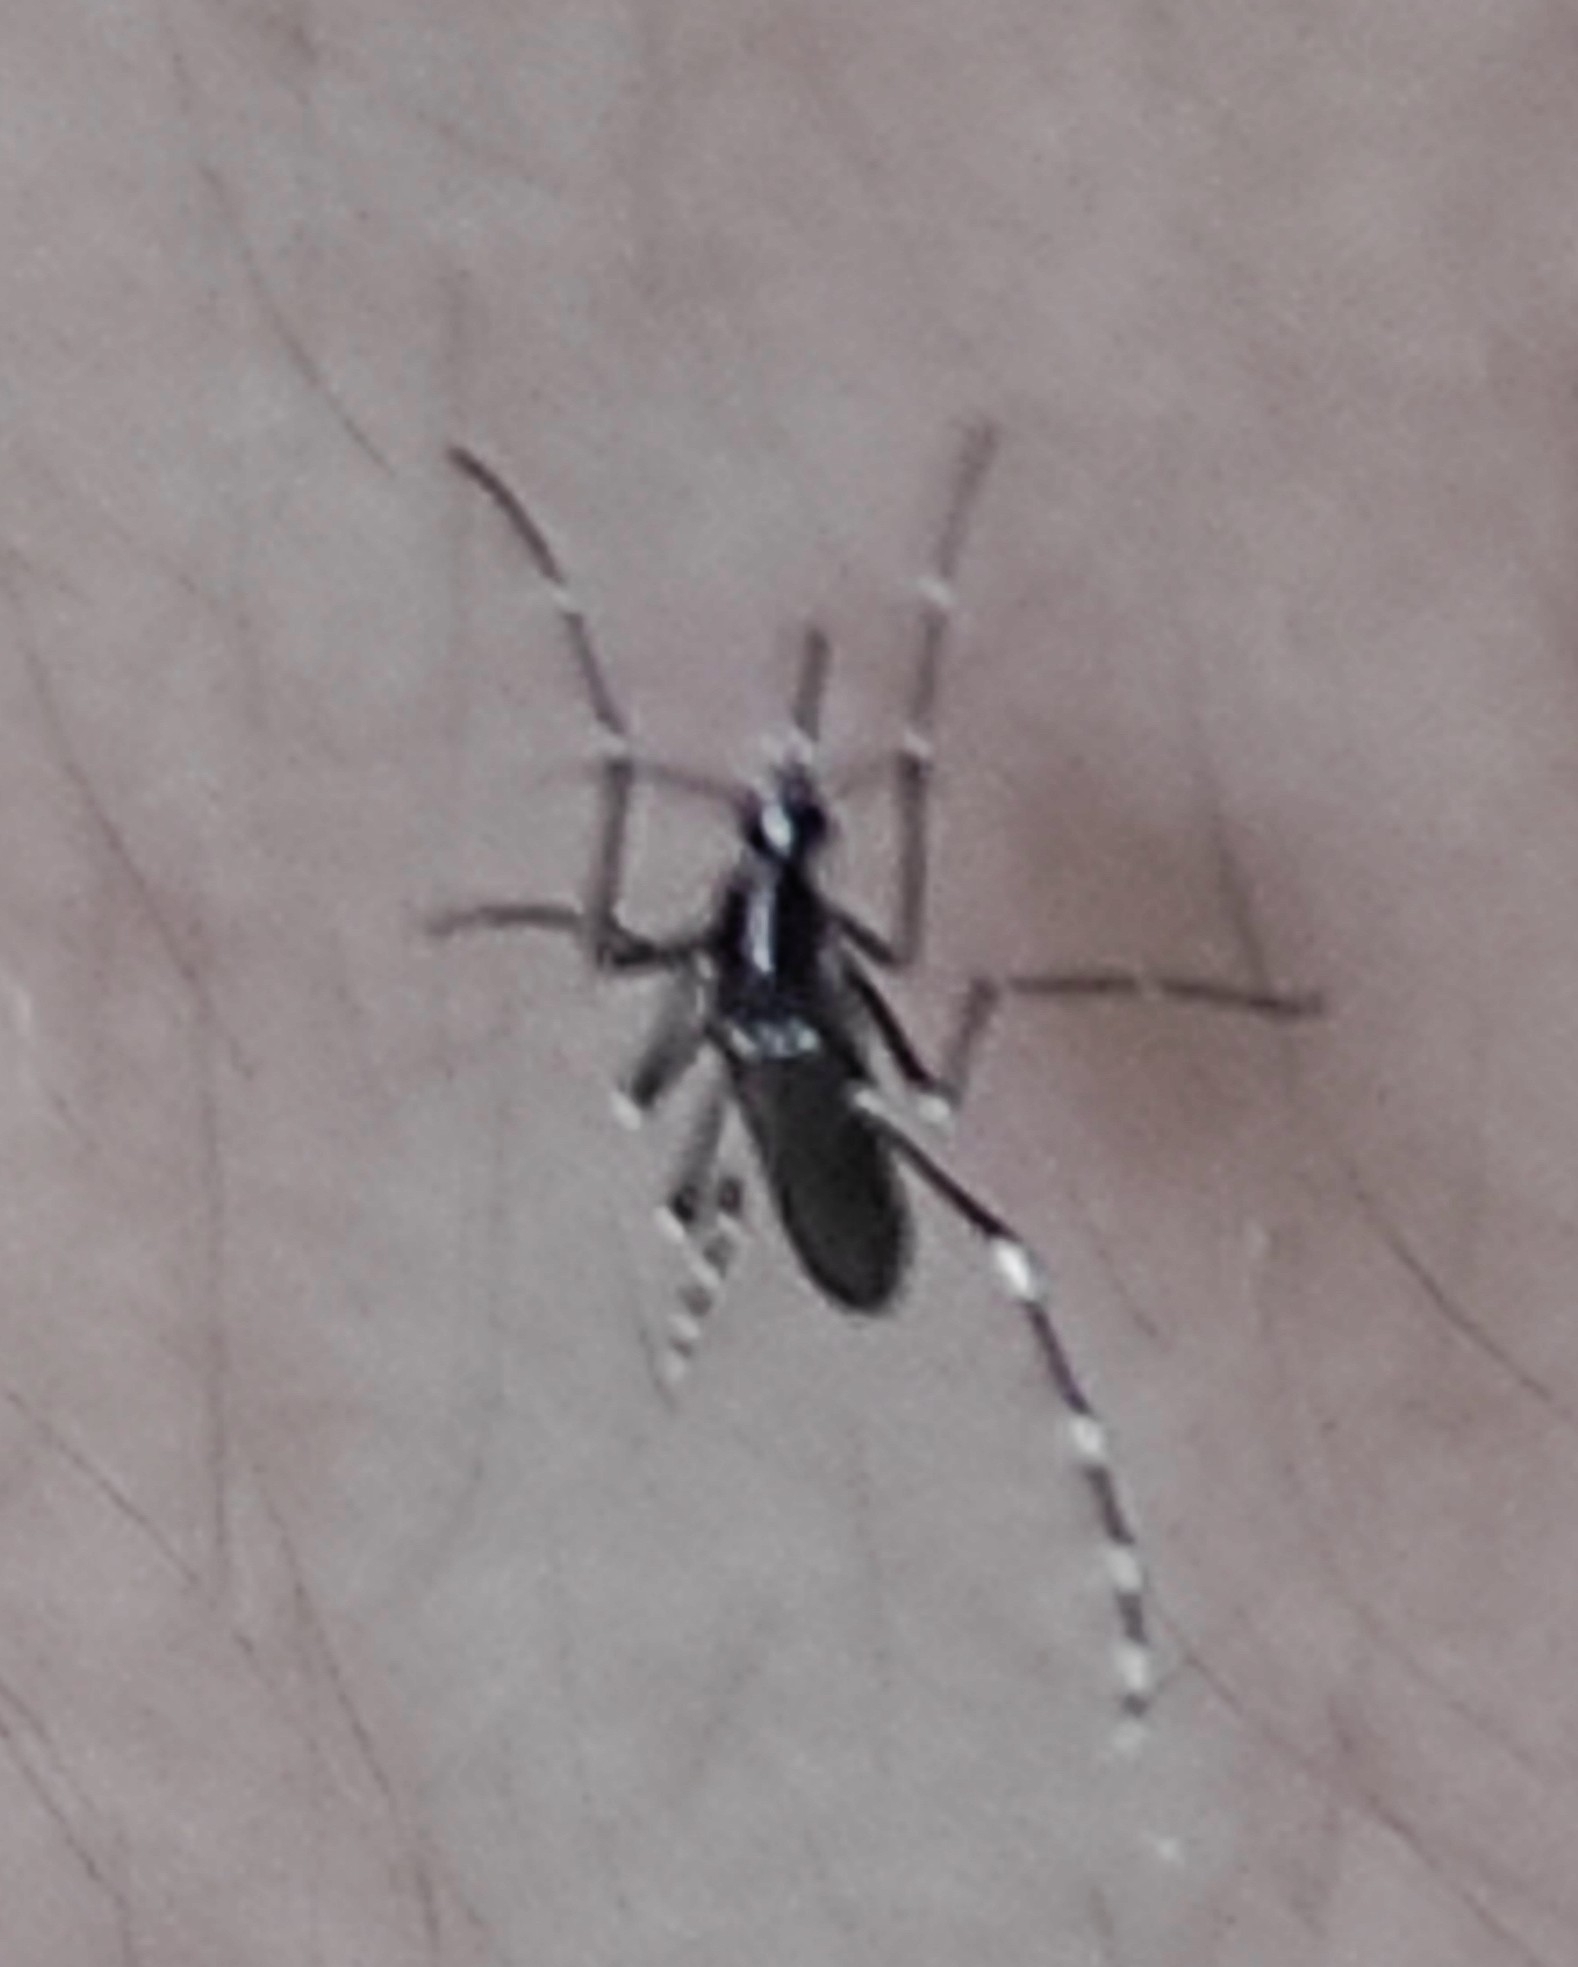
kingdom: Animalia
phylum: Arthropoda
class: Insecta
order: Diptera
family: Culicidae
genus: Aedes
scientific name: Aedes albopictus
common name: Tiger mosquito
